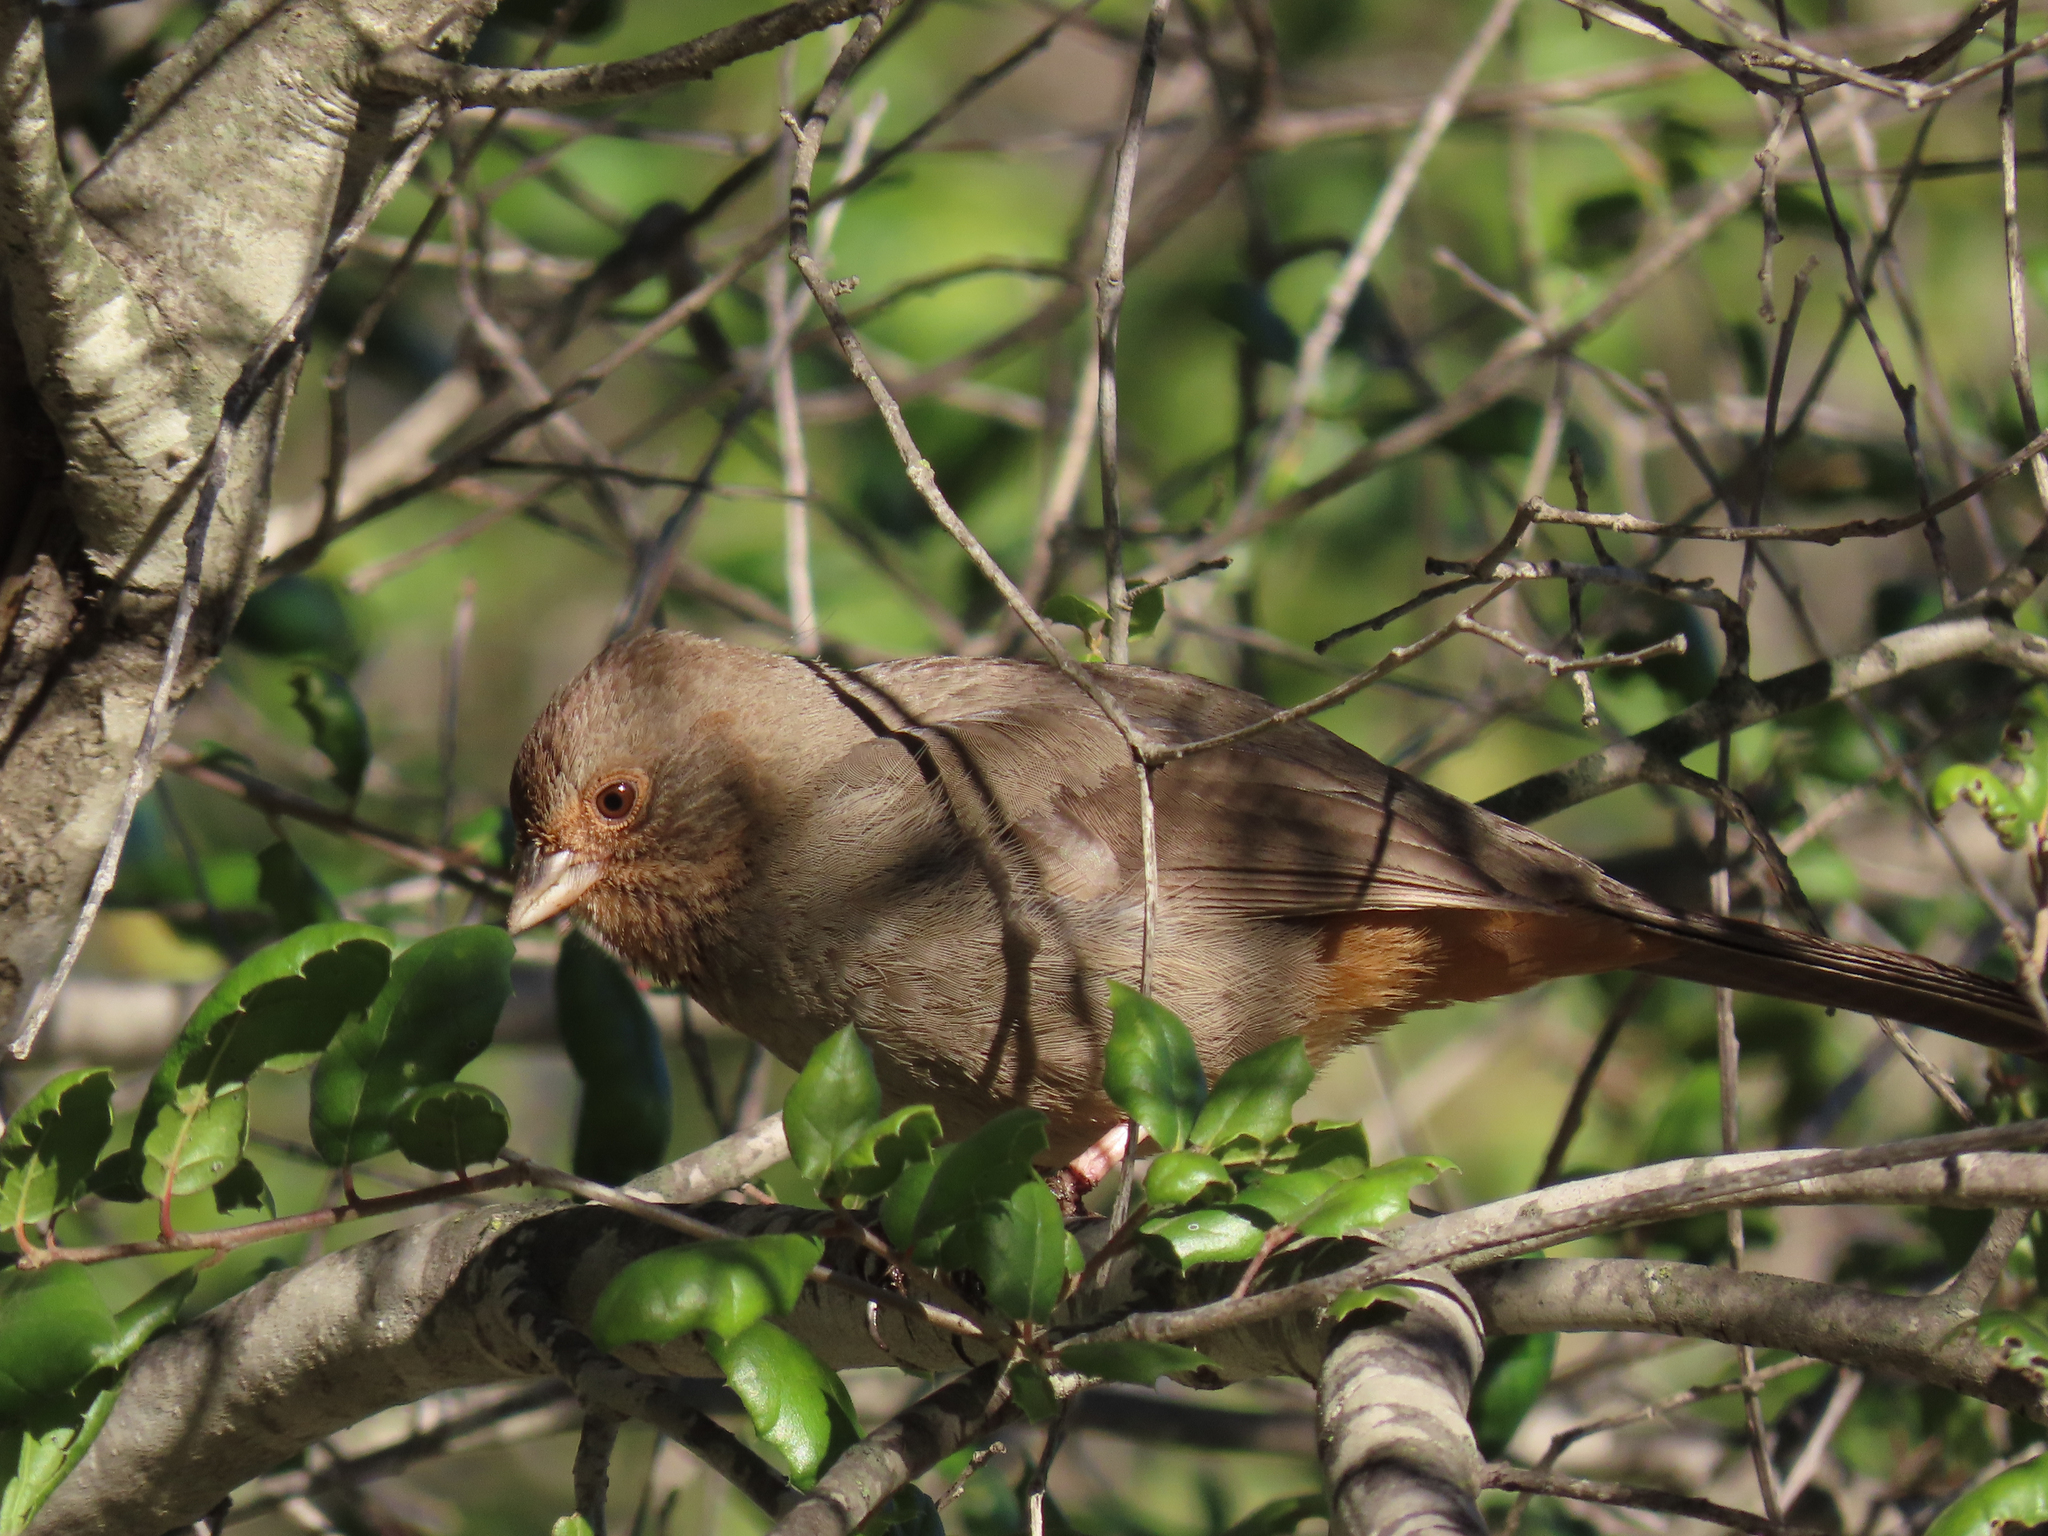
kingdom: Animalia
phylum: Chordata
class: Aves
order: Passeriformes
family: Passerellidae
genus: Melozone
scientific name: Melozone crissalis
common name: California towhee
